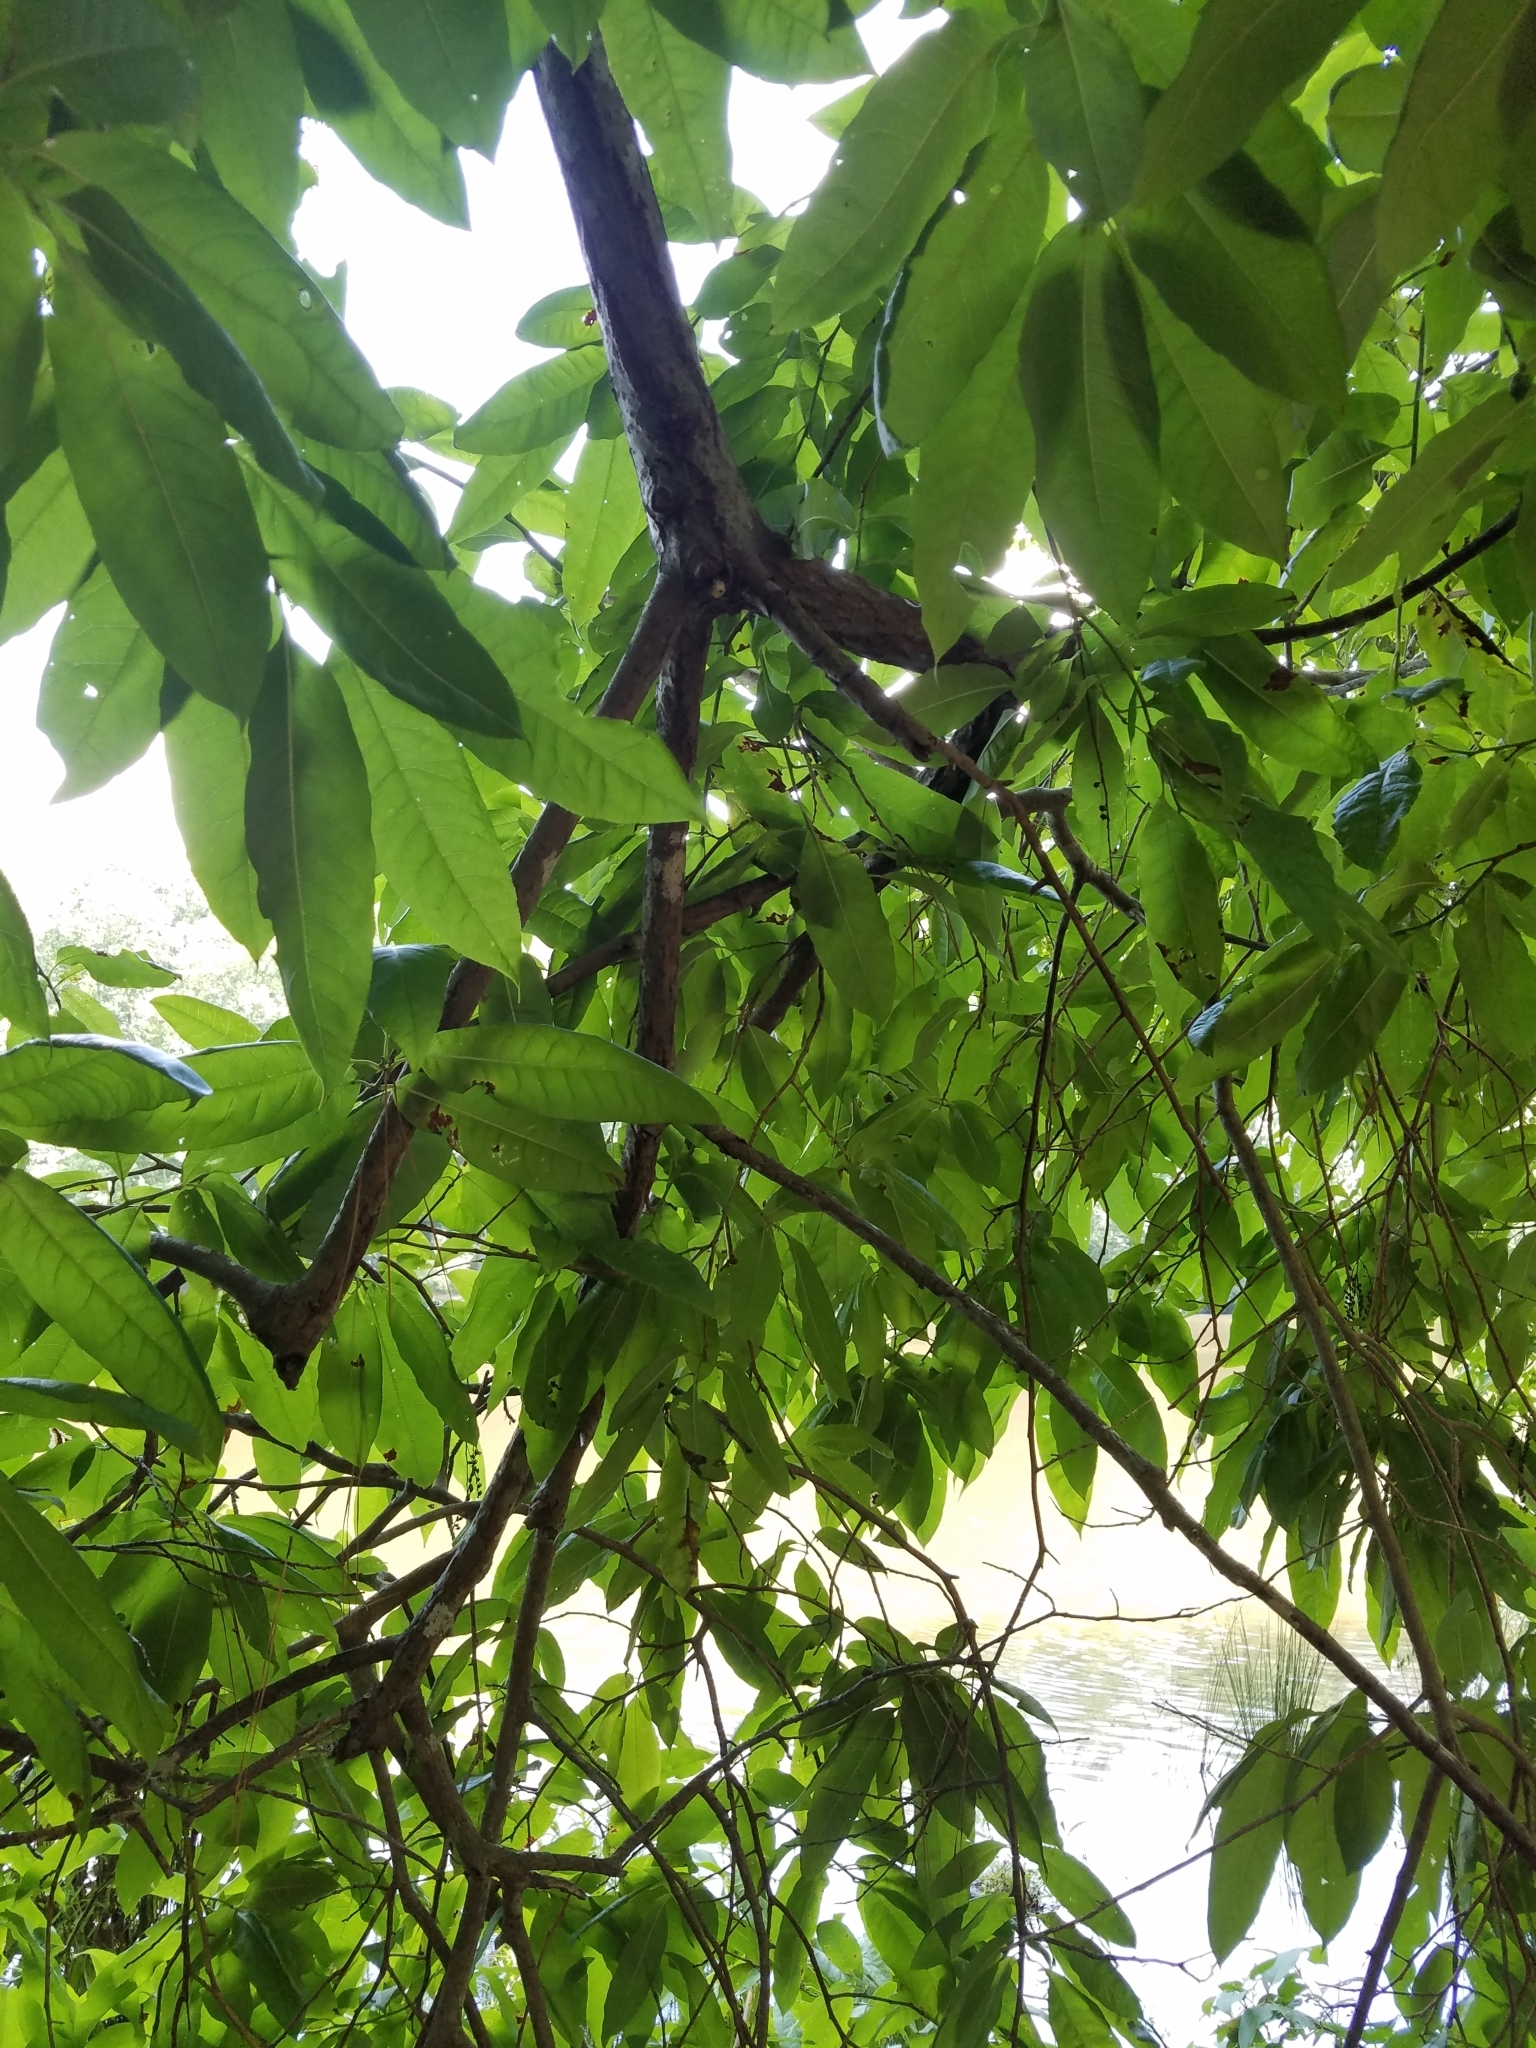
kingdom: Plantae
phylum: Tracheophyta
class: Magnoliopsida
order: Ericales
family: Ericaceae
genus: Oxydendrum
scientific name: Oxydendrum arboreum
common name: Sourwood
